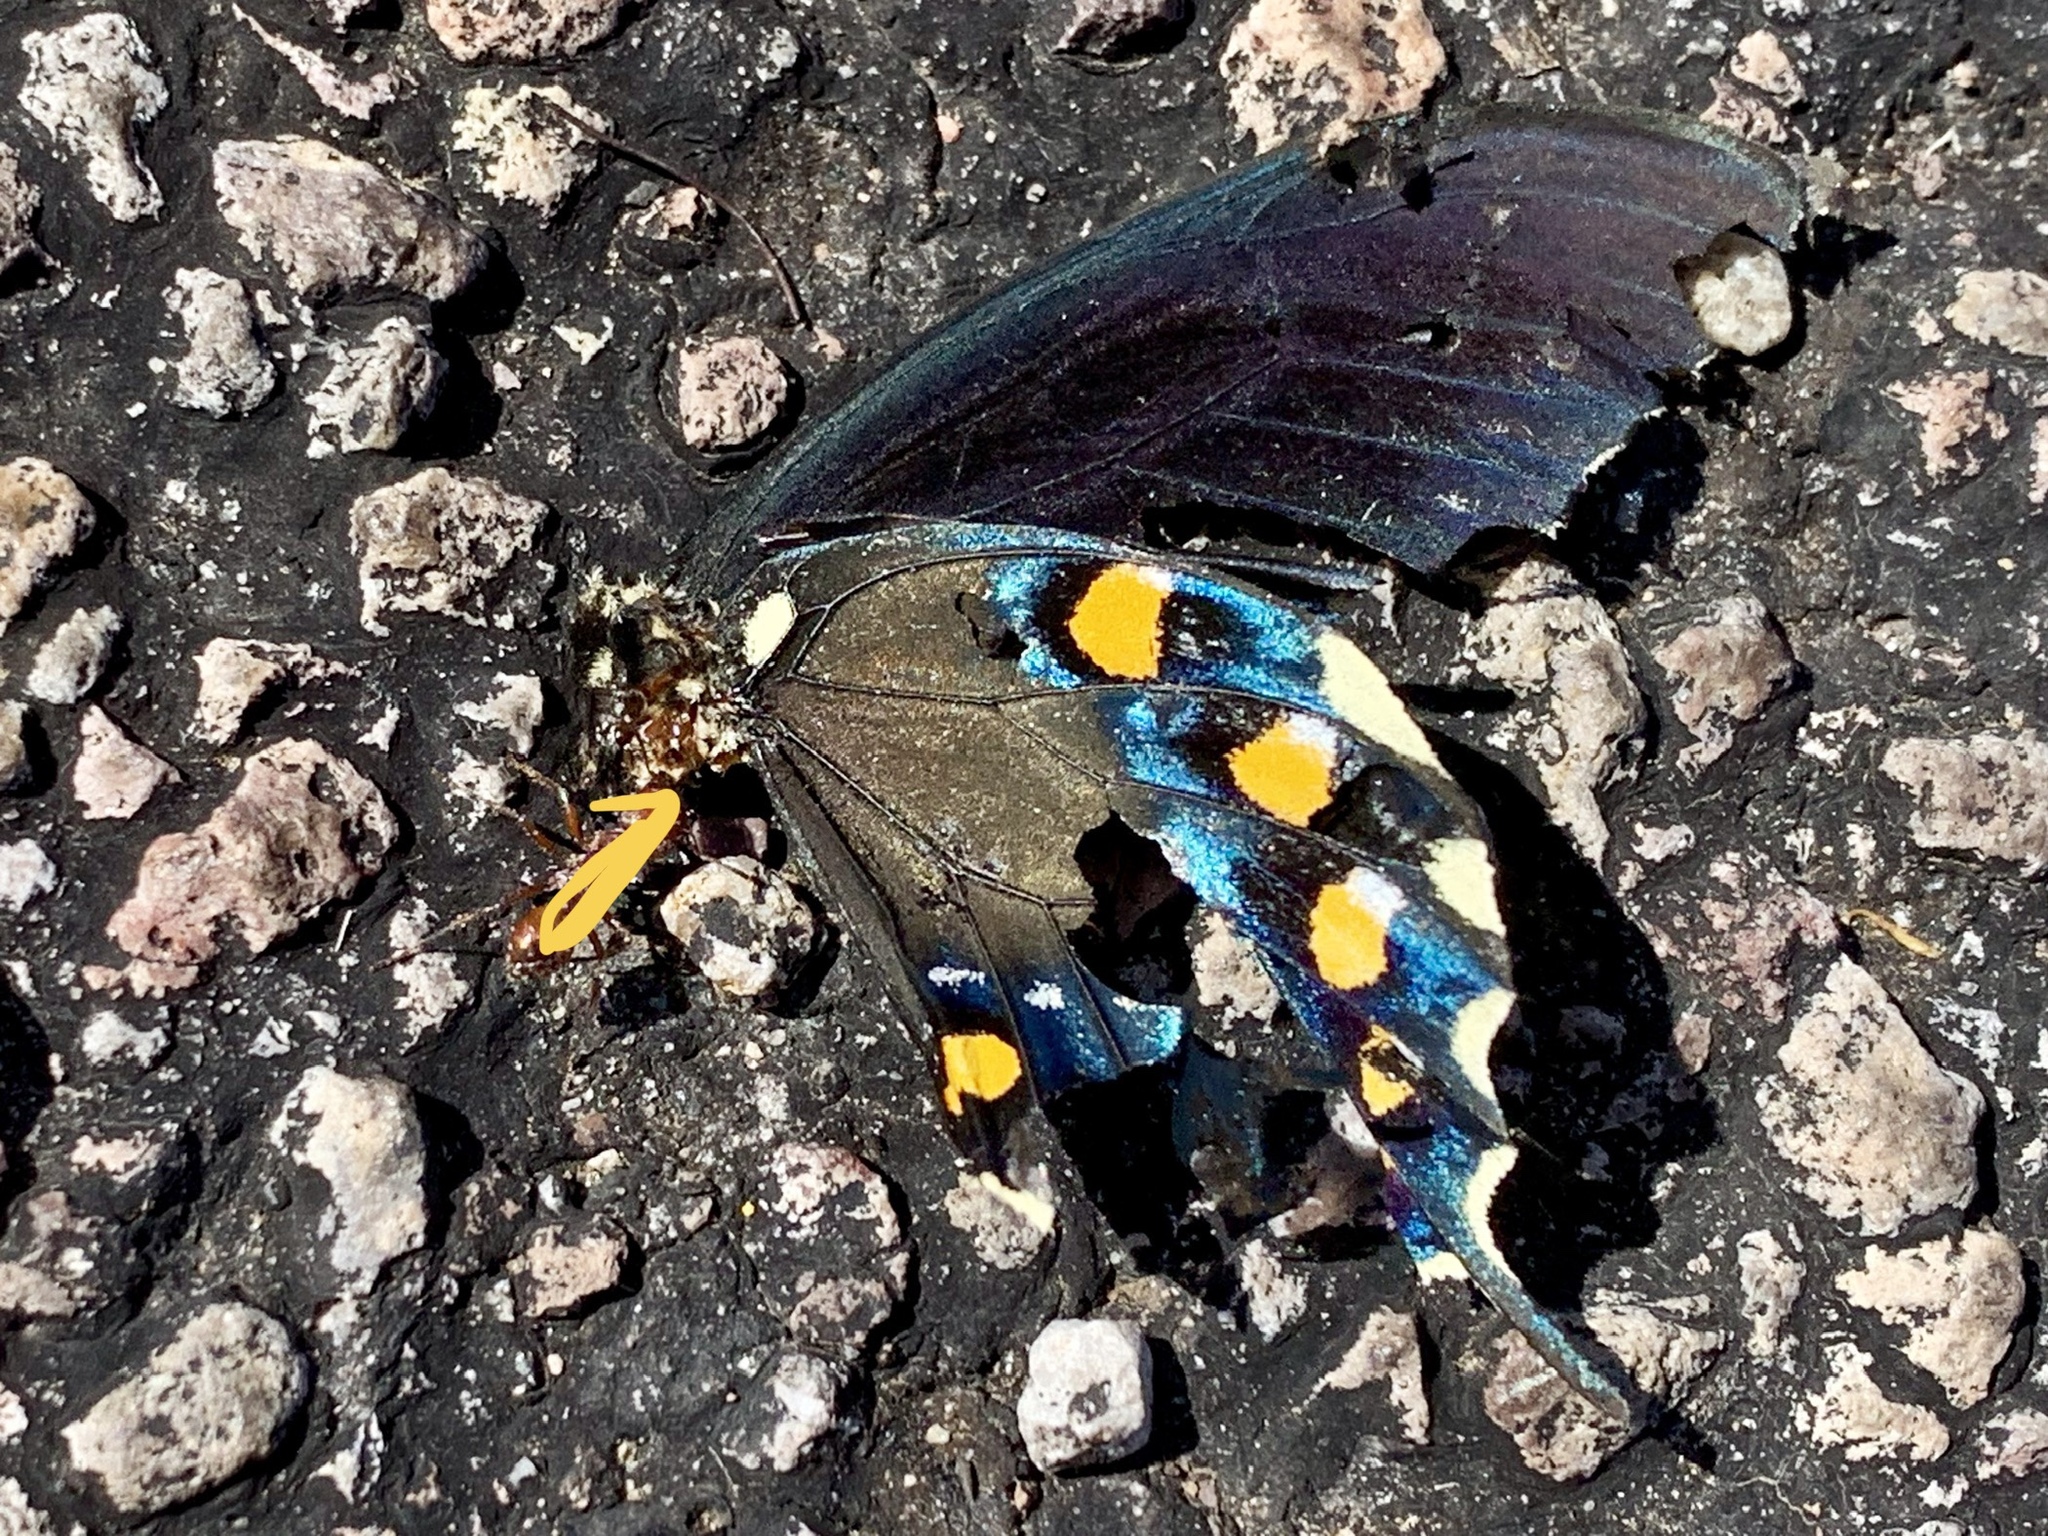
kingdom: Animalia
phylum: Arthropoda
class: Insecta
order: Lepidoptera
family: Papilionidae
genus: Battus
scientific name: Battus philenor
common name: Pipevine swallowtail
